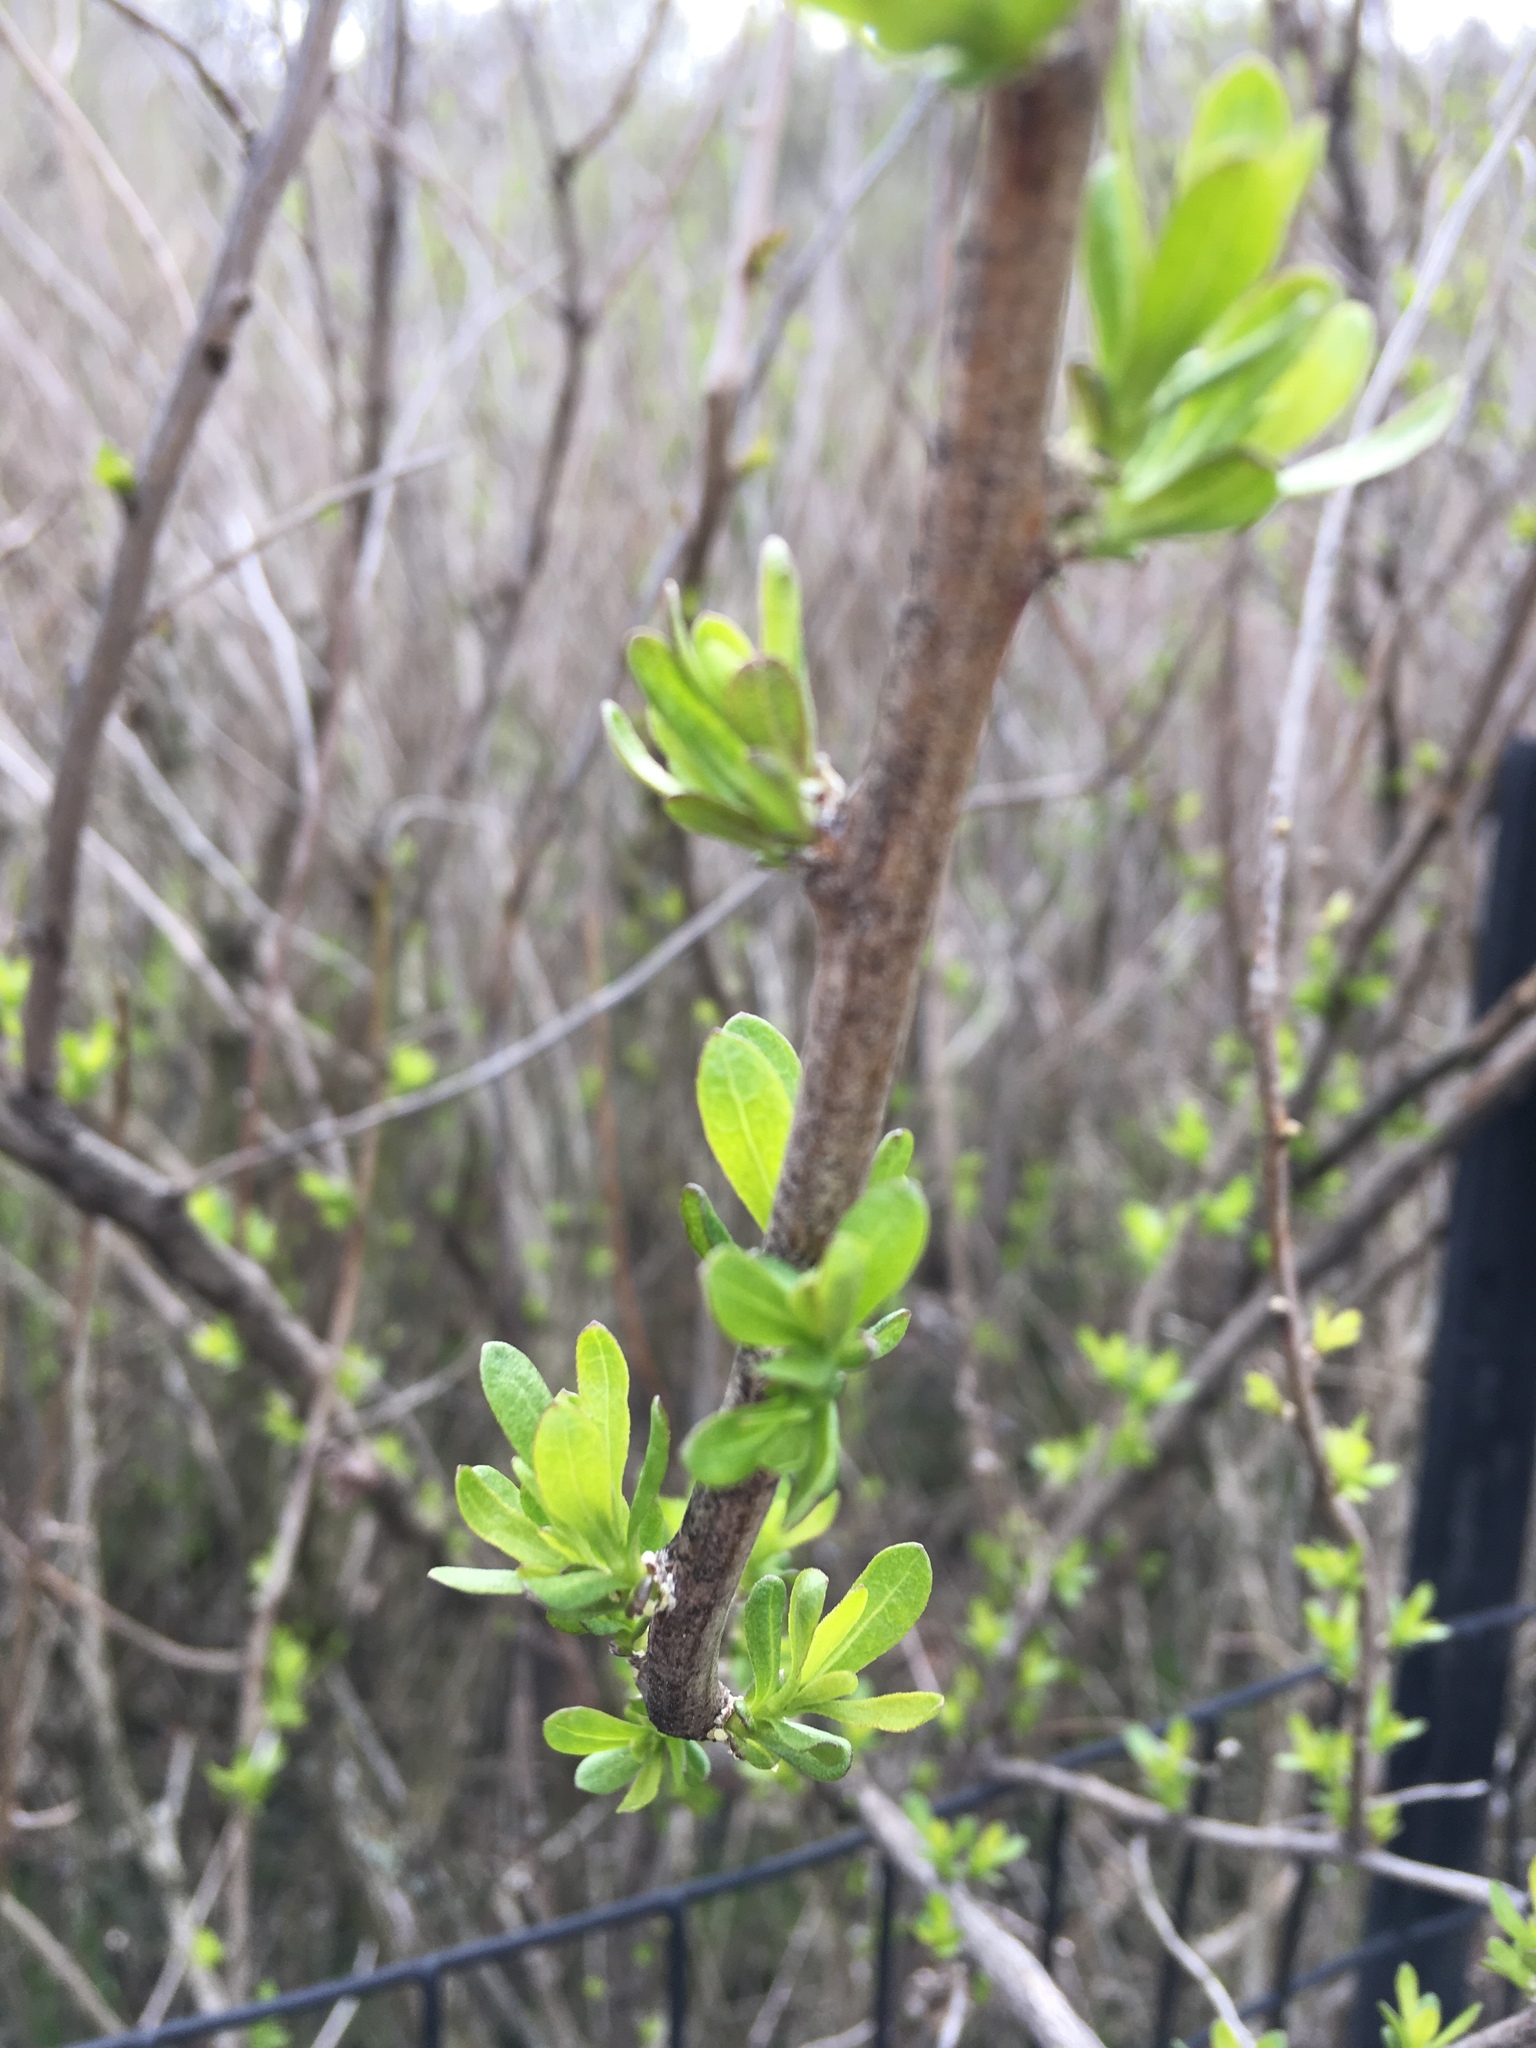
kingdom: Plantae
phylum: Tracheophyta
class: Magnoliopsida
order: Asterales
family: Asteraceae
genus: Baccharis
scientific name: Baccharis halimifolia
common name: Eastern baccharis
